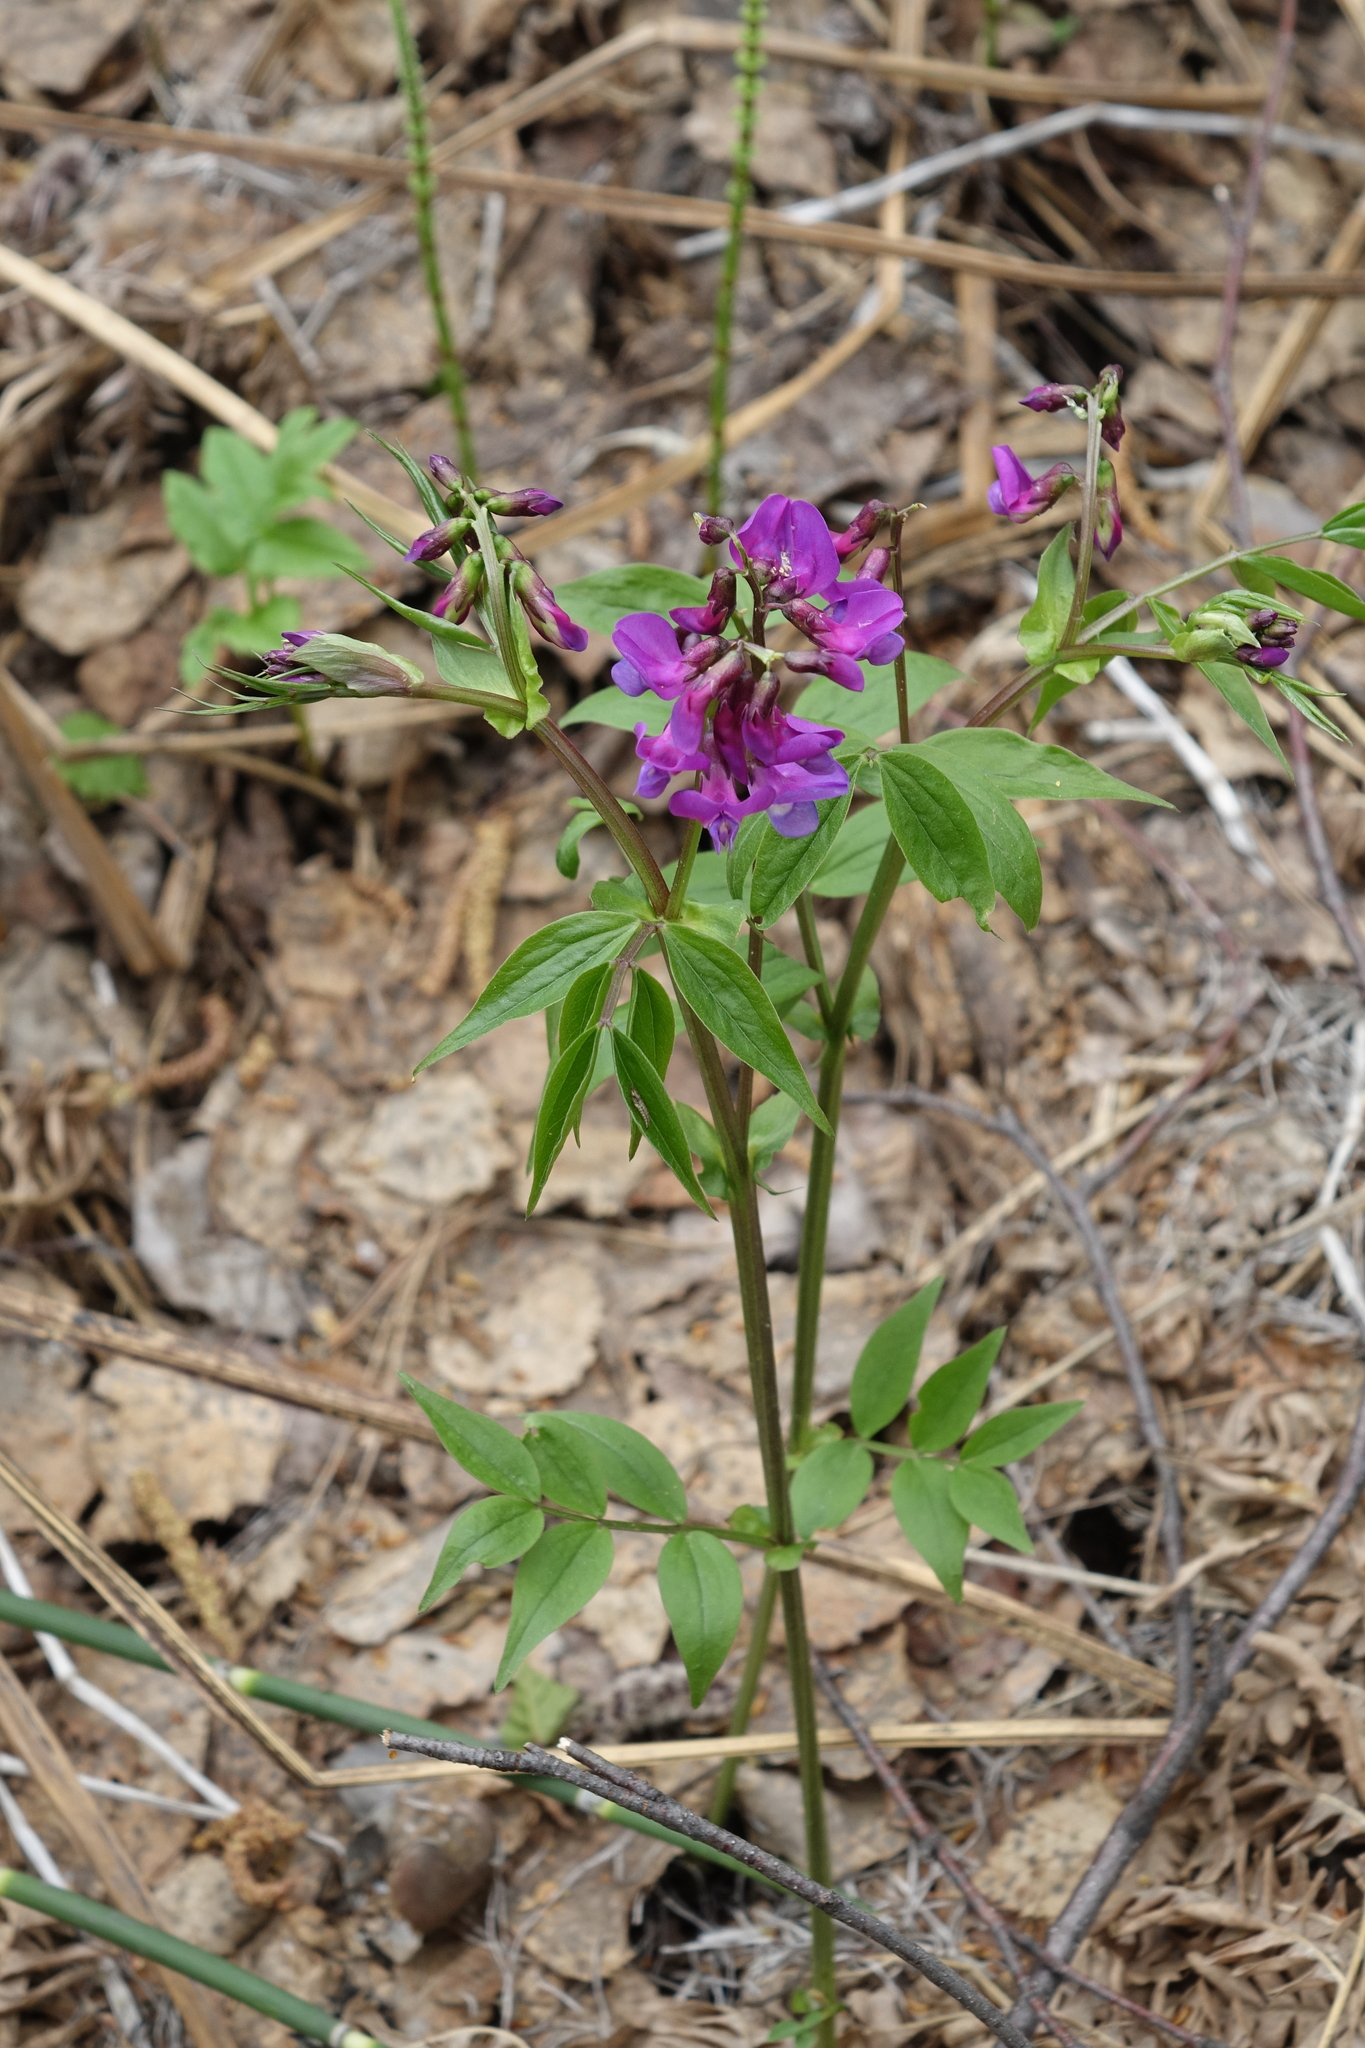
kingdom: Plantae
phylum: Tracheophyta
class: Magnoliopsida
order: Fabales
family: Fabaceae
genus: Lathyrus
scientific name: Lathyrus vernus
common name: Spring pea
